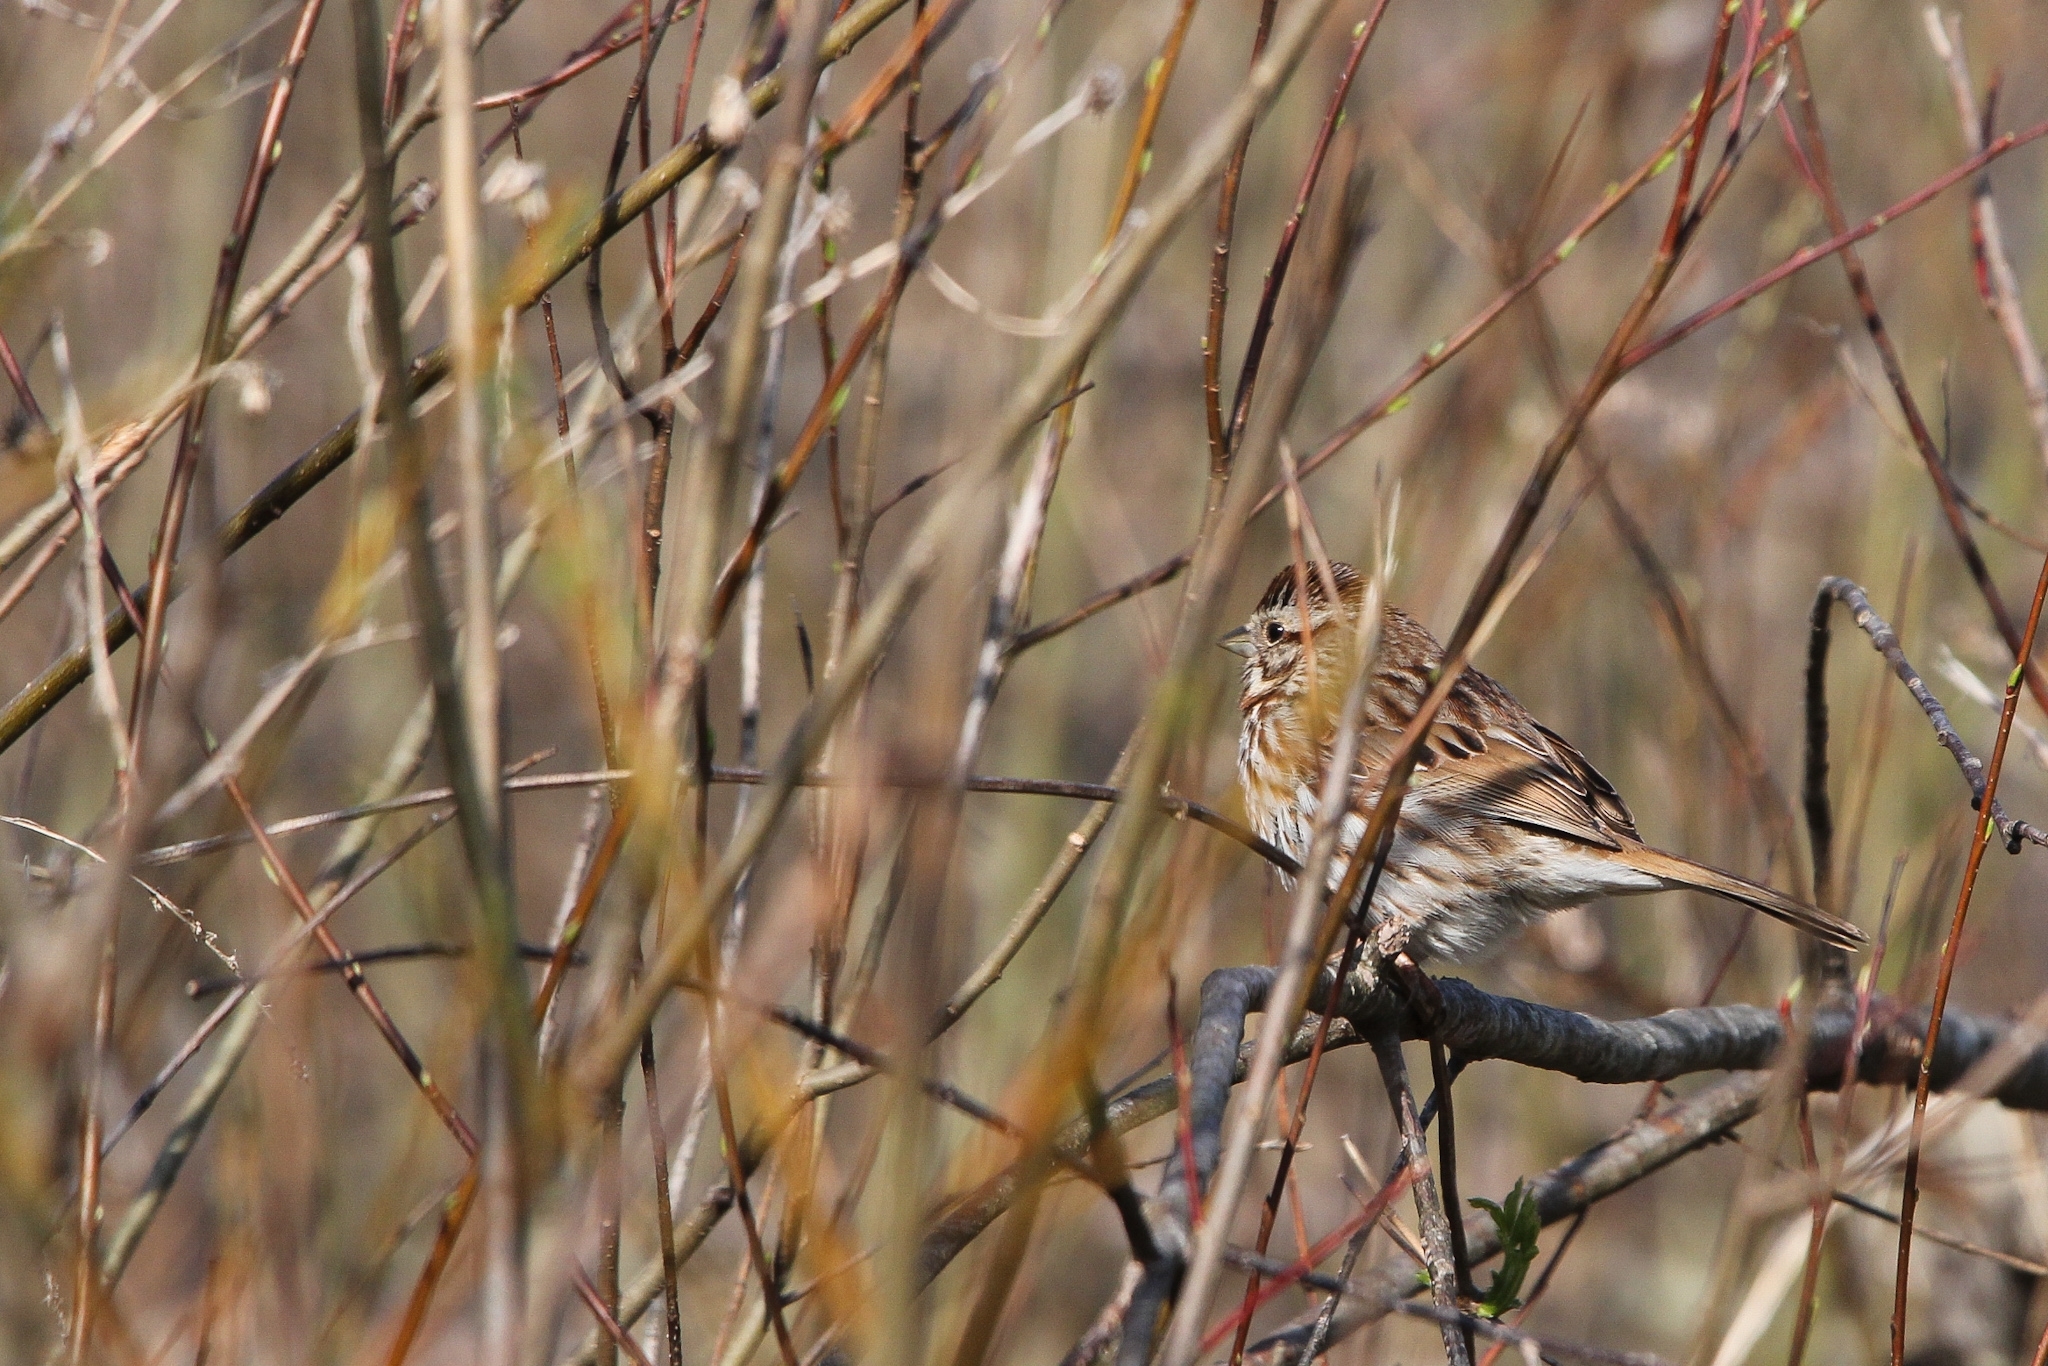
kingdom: Animalia
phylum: Chordata
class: Aves
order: Passeriformes
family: Passerellidae
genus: Melospiza
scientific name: Melospiza melodia
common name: Song sparrow
